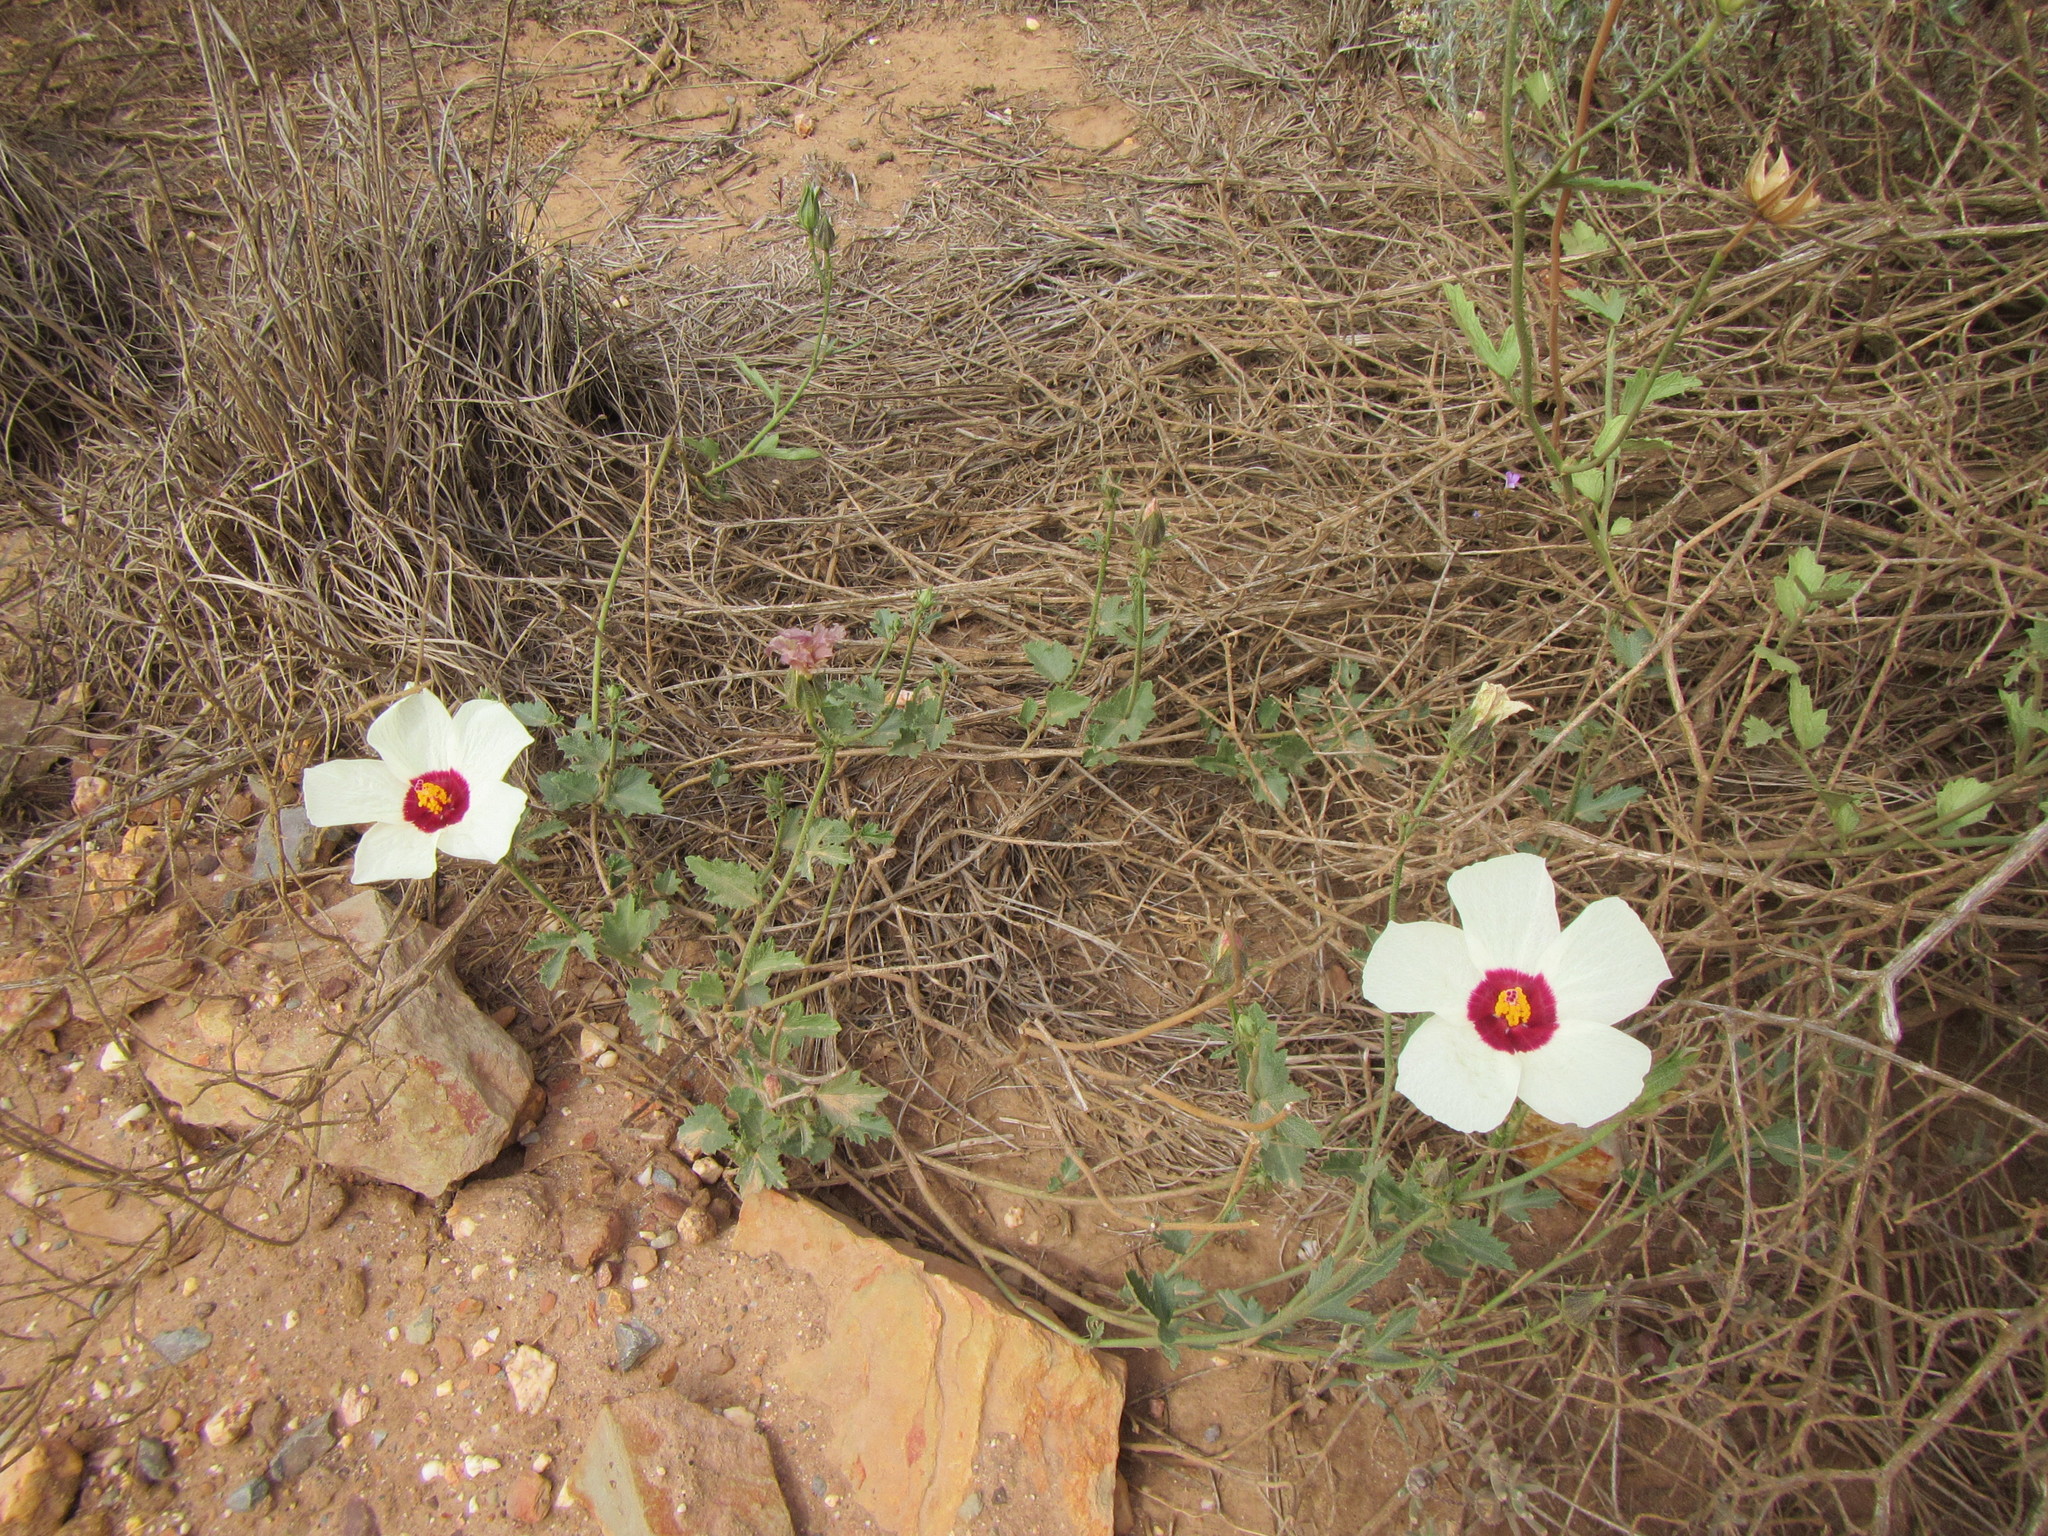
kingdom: Plantae
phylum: Tracheophyta
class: Magnoliopsida
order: Malvales
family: Malvaceae
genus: Hibiscus
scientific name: Hibiscus pusillus
